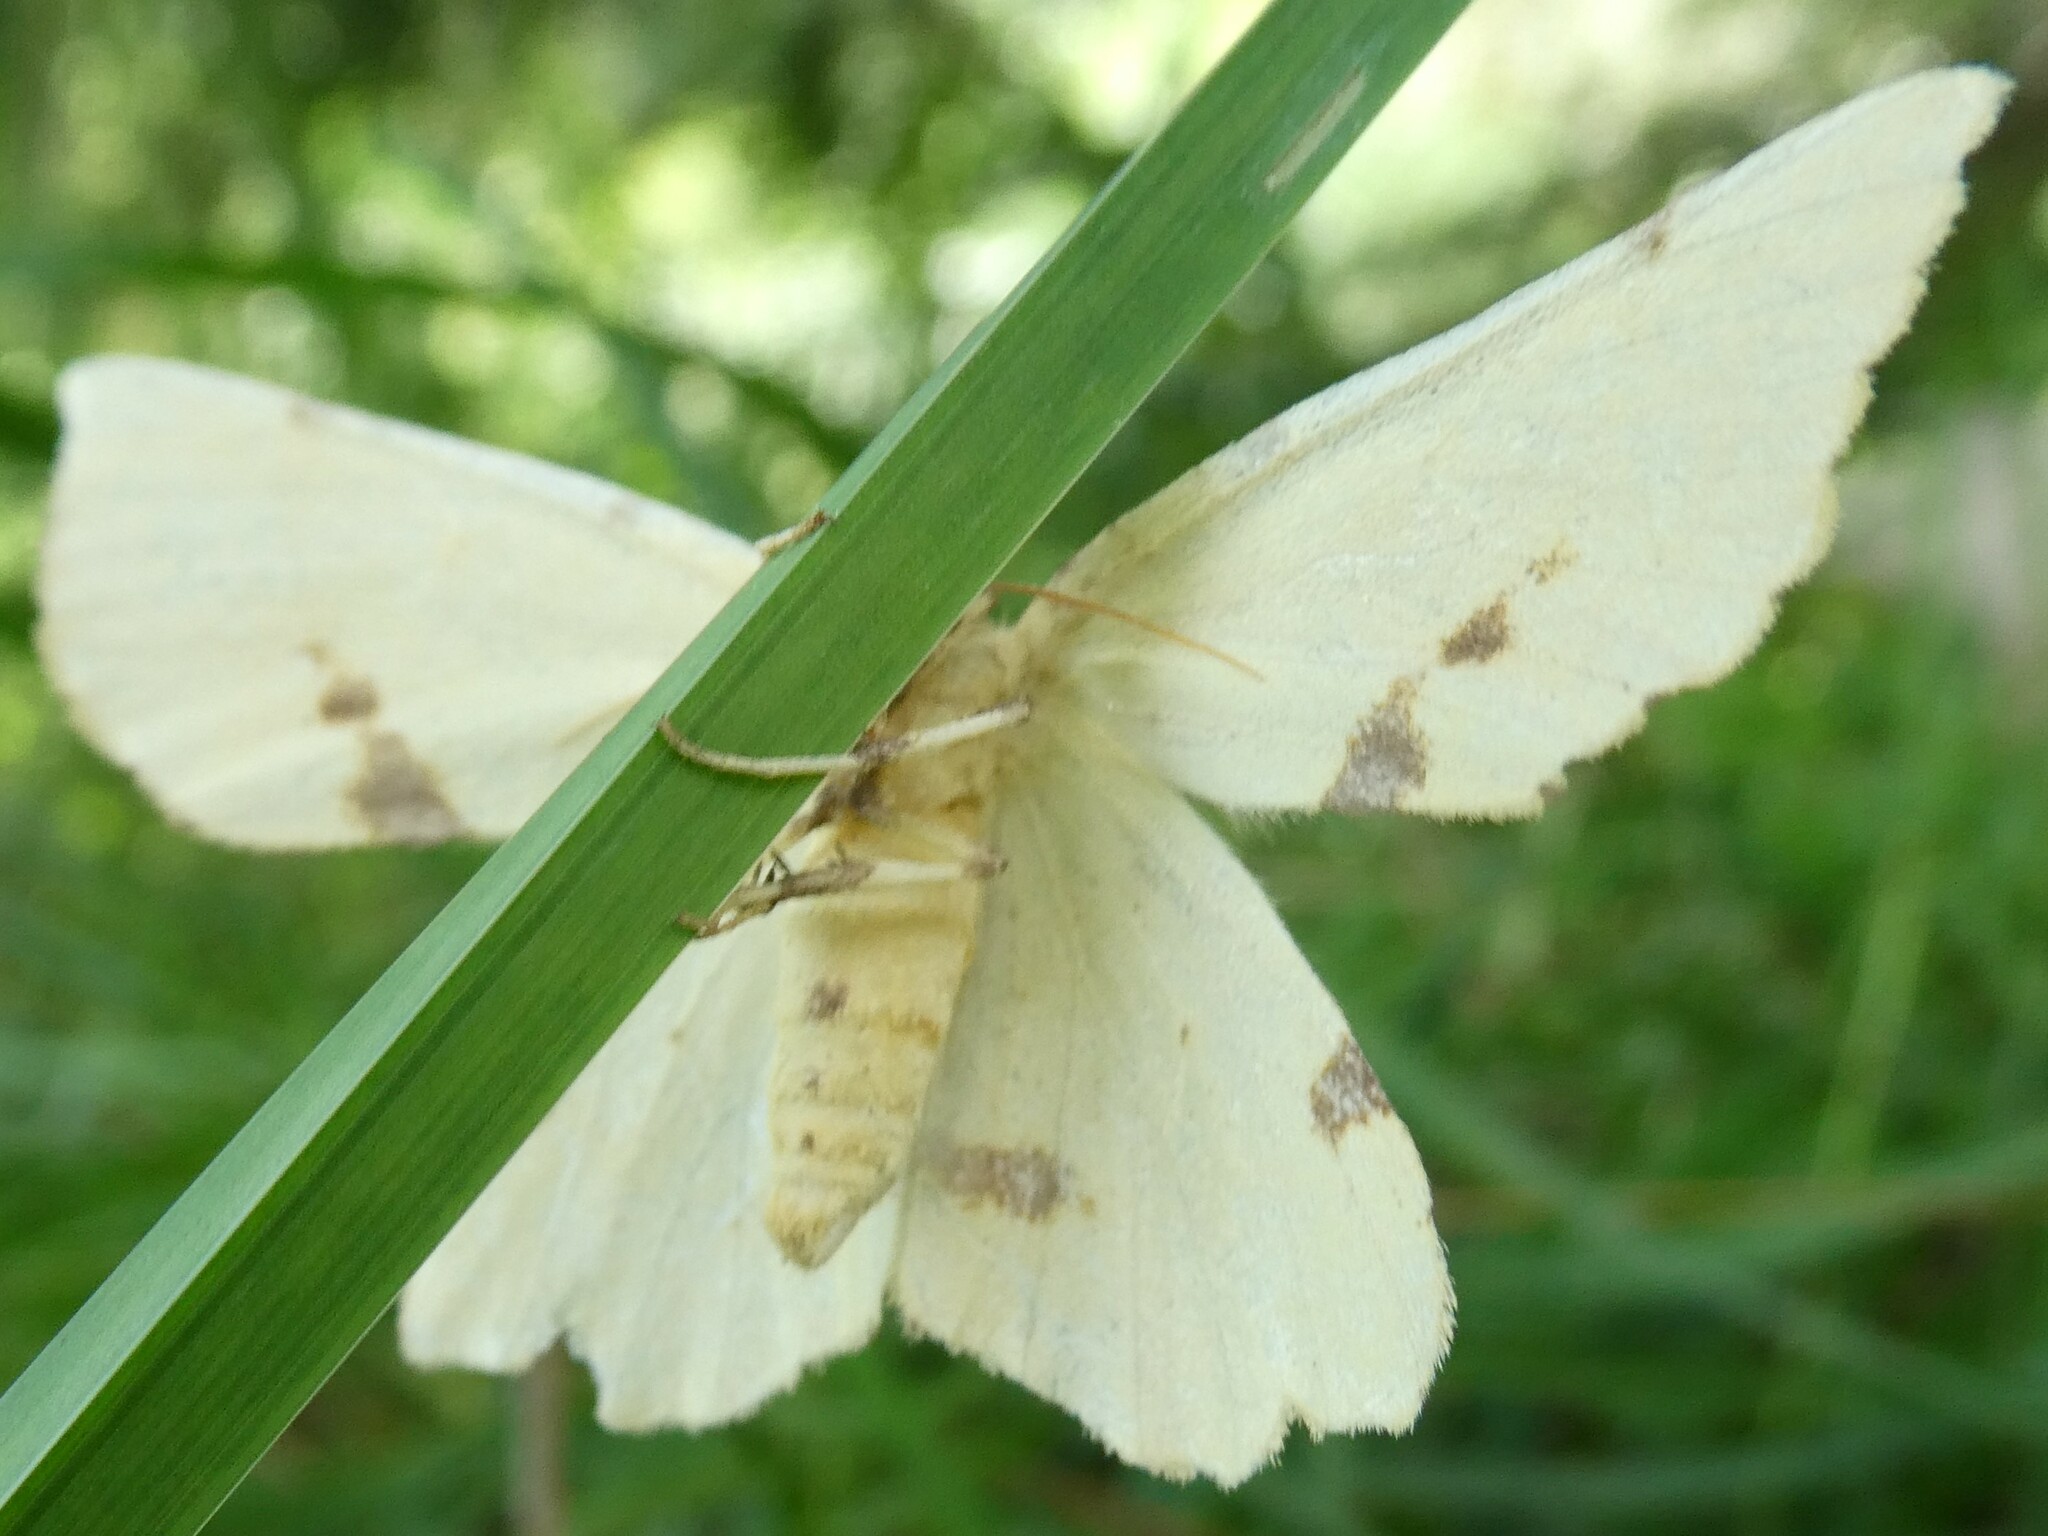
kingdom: Animalia
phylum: Arthropoda
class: Insecta
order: Lepidoptera
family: Geometridae
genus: Xanthotype
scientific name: Xanthotype
